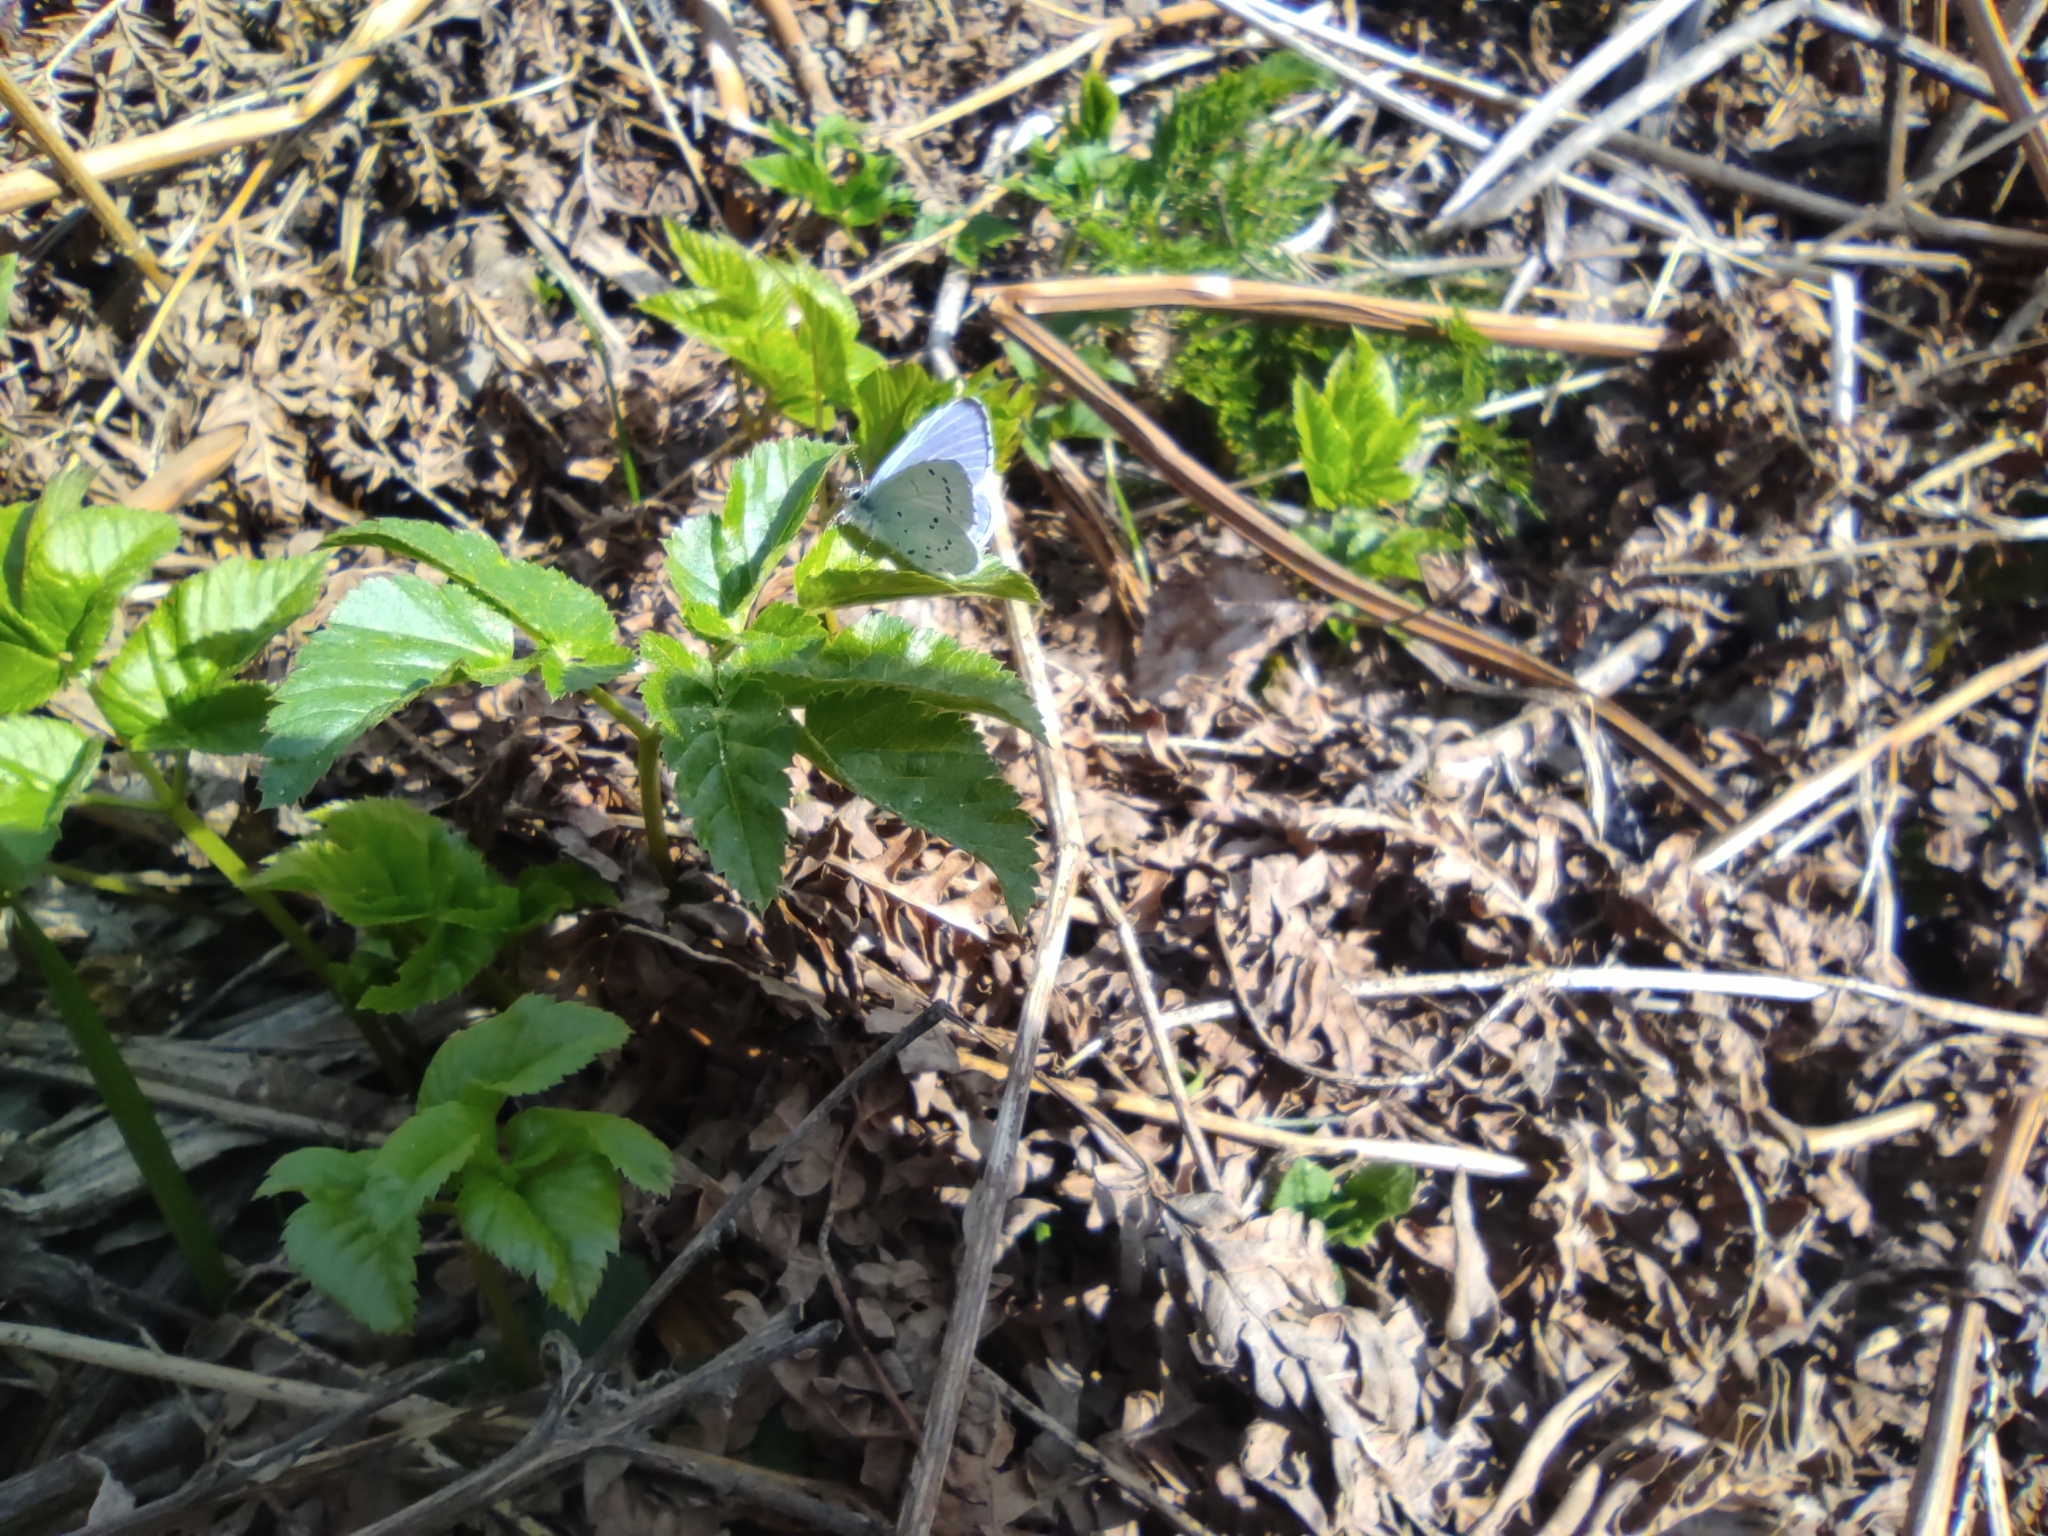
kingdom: Animalia
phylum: Arthropoda
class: Insecta
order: Lepidoptera
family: Lycaenidae
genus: Celastrina
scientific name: Celastrina argiolus
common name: Holly blue
